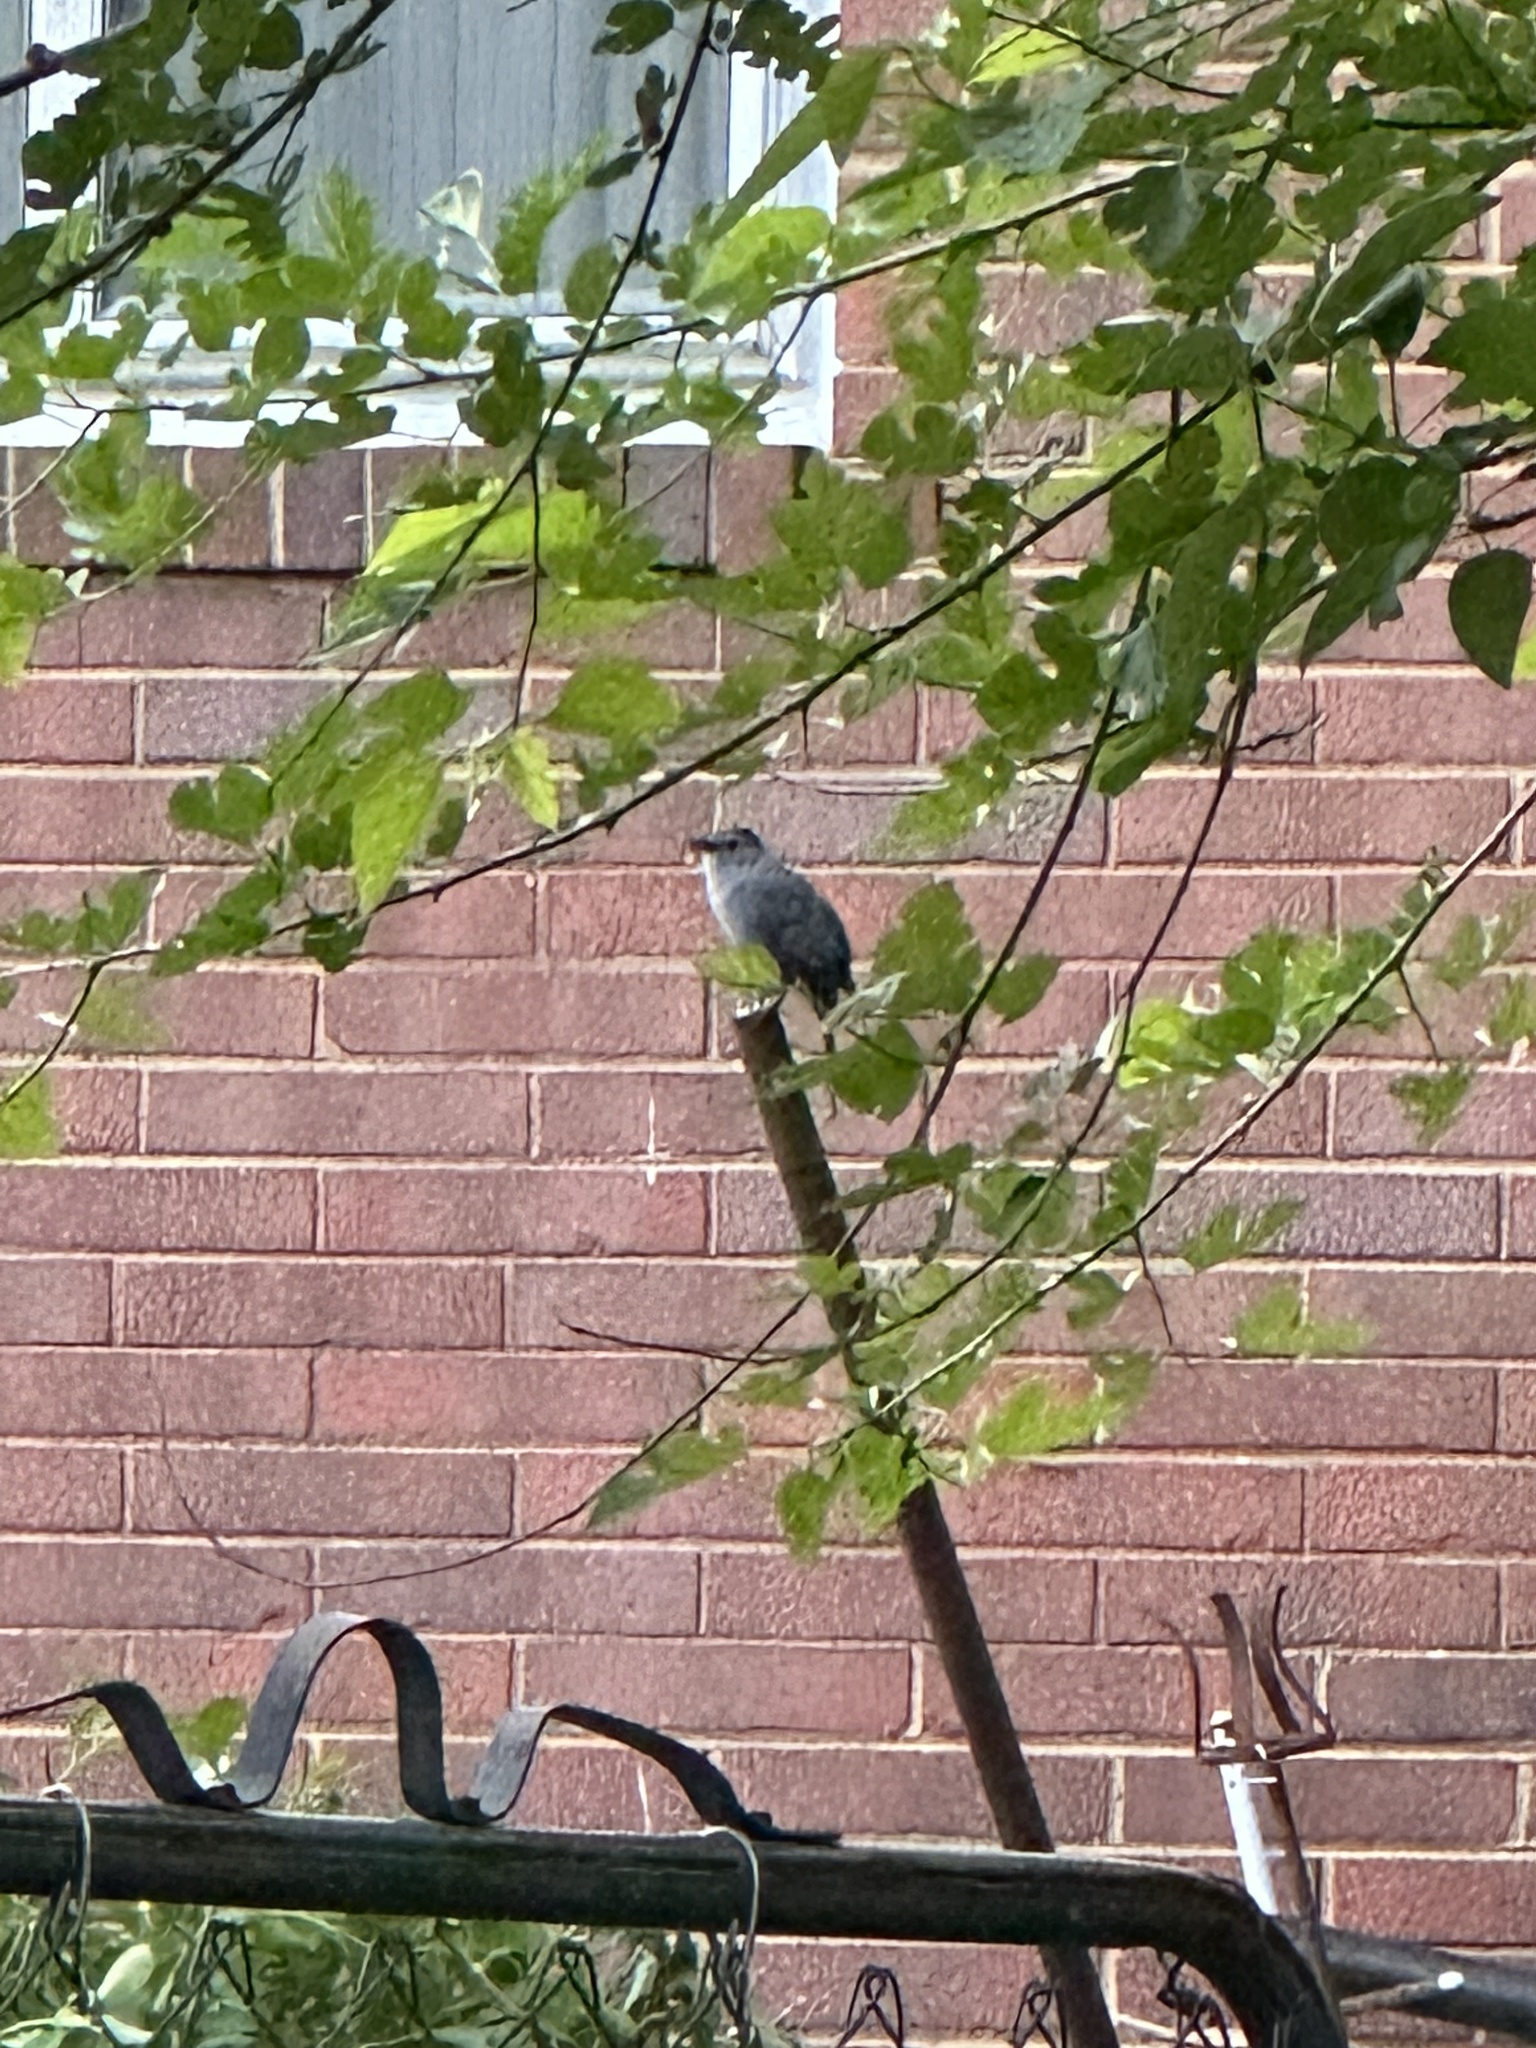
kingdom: Animalia
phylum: Chordata
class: Aves
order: Passeriformes
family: Mimidae
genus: Dumetella
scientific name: Dumetella carolinensis
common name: Gray catbird
